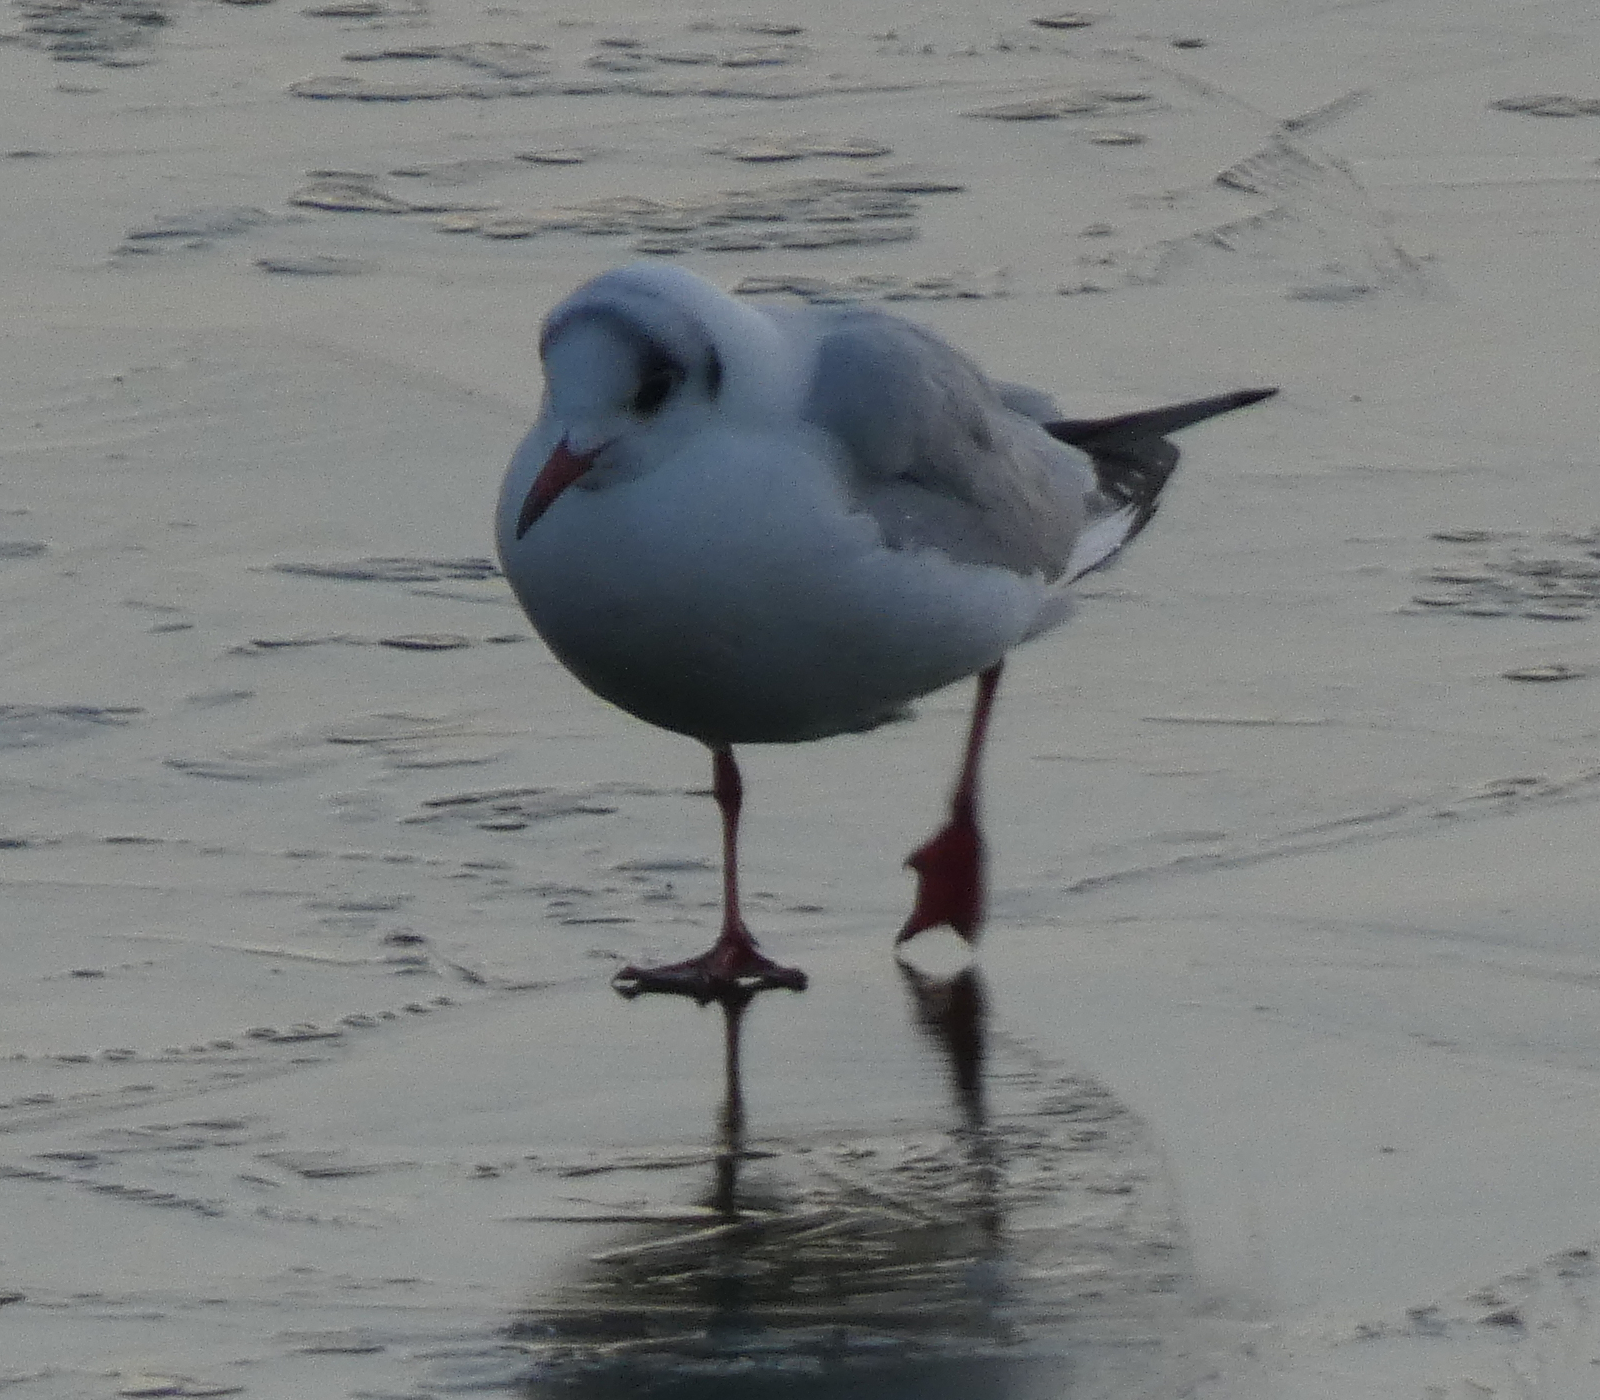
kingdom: Animalia
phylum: Chordata
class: Aves
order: Charadriiformes
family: Laridae
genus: Chroicocephalus
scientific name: Chroicocephalus ridibundus
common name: Black-headed gull
